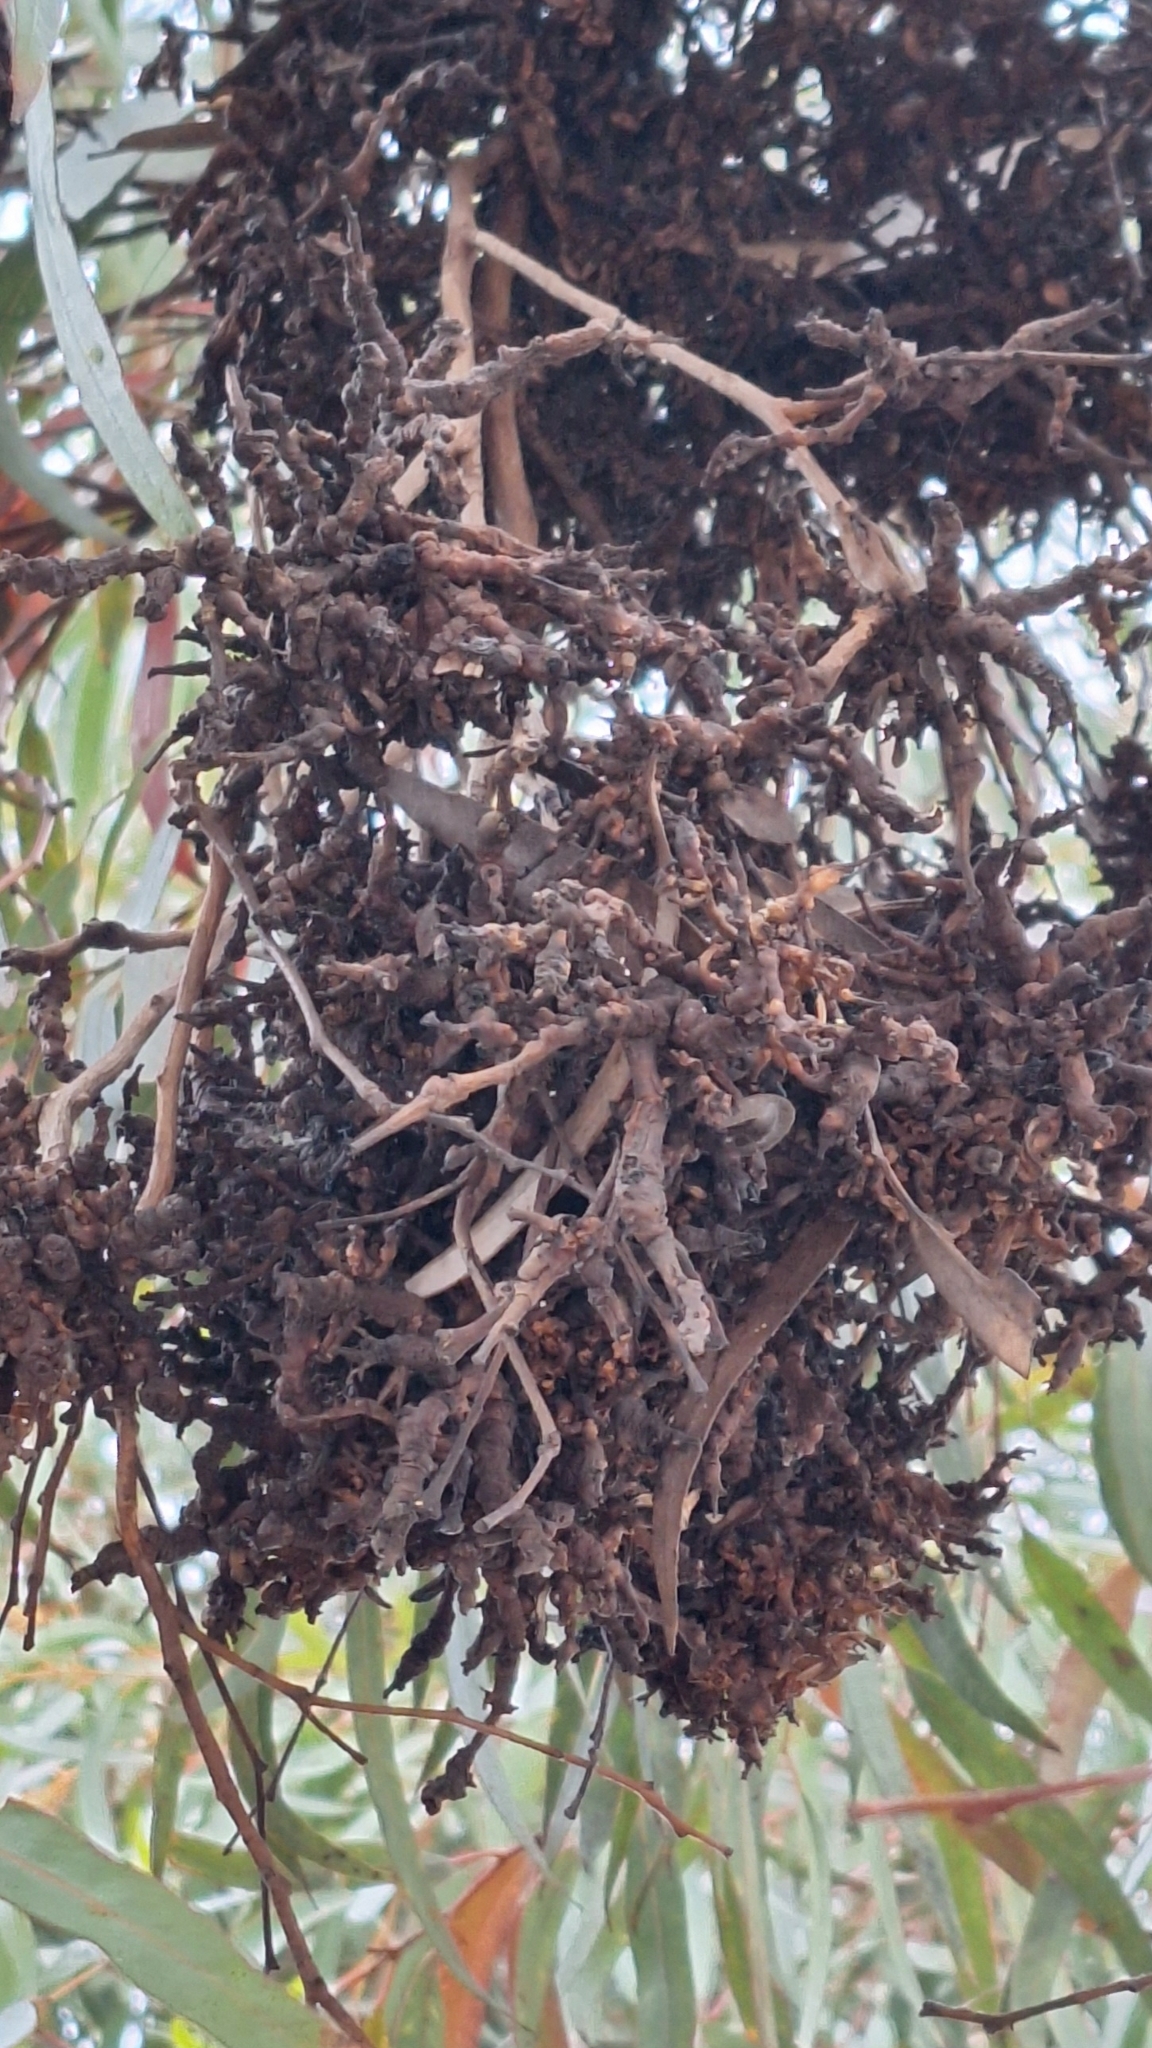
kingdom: Animalia
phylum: Arthropoda
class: Insecta
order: Hemiptera
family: Diaspididae
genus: Maskellia
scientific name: Maskellia globosa
